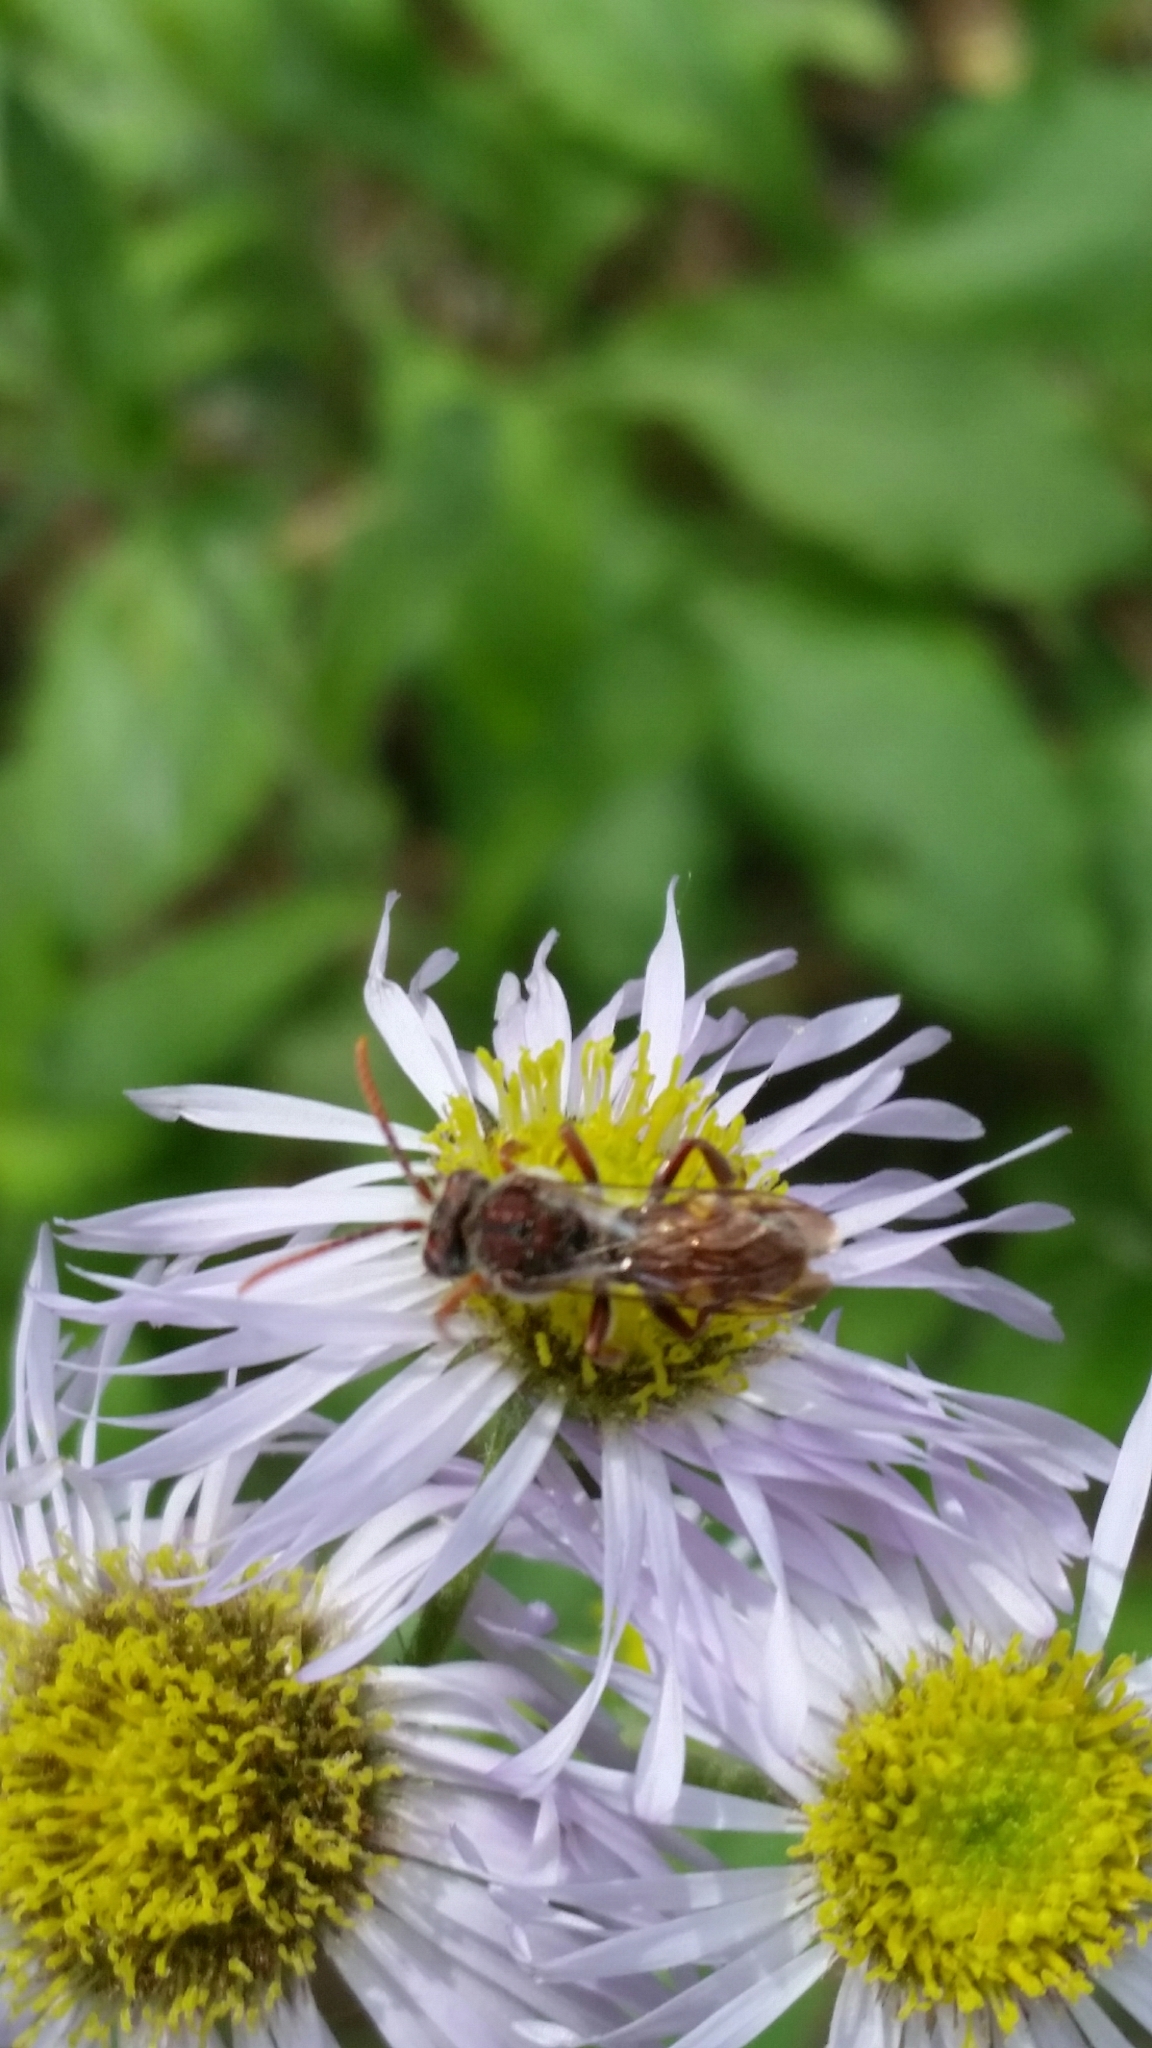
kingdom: Animalia
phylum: Arthropoda
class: Insecta
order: Hymenoptera
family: Apidae
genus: Nomada
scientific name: Nomada
